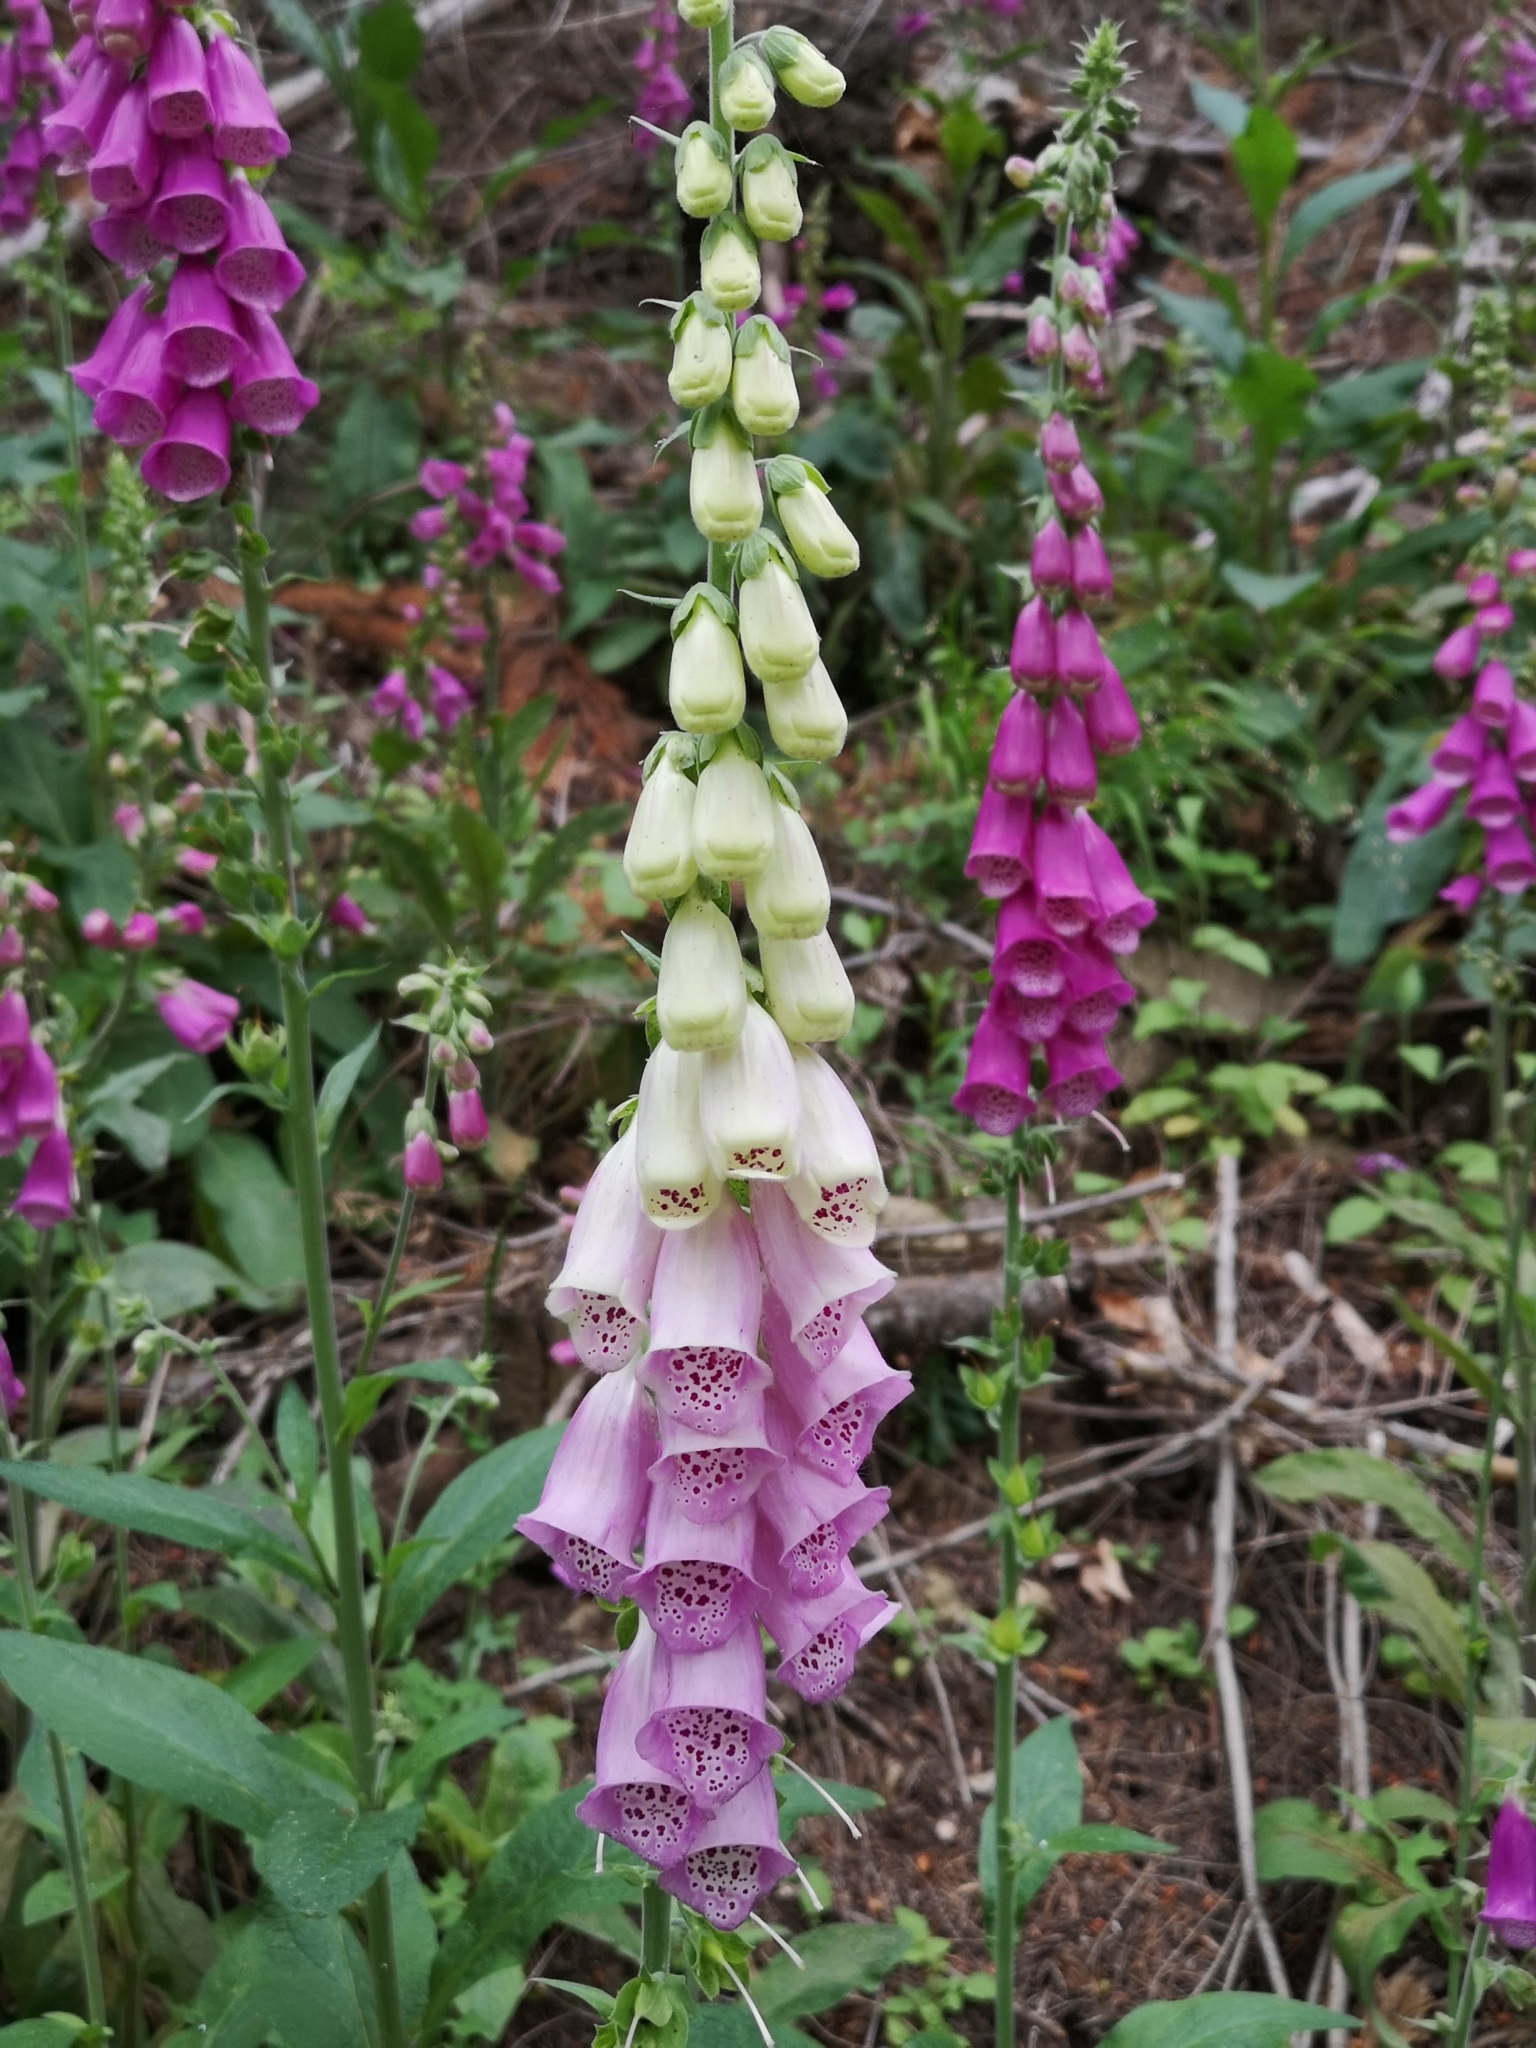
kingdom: Plantae
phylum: Tracheophyta
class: Magnoliopsida
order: Lamiales
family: Plantaginaceae
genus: Digitalis
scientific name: Digitalis purpurea
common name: Foxglove
